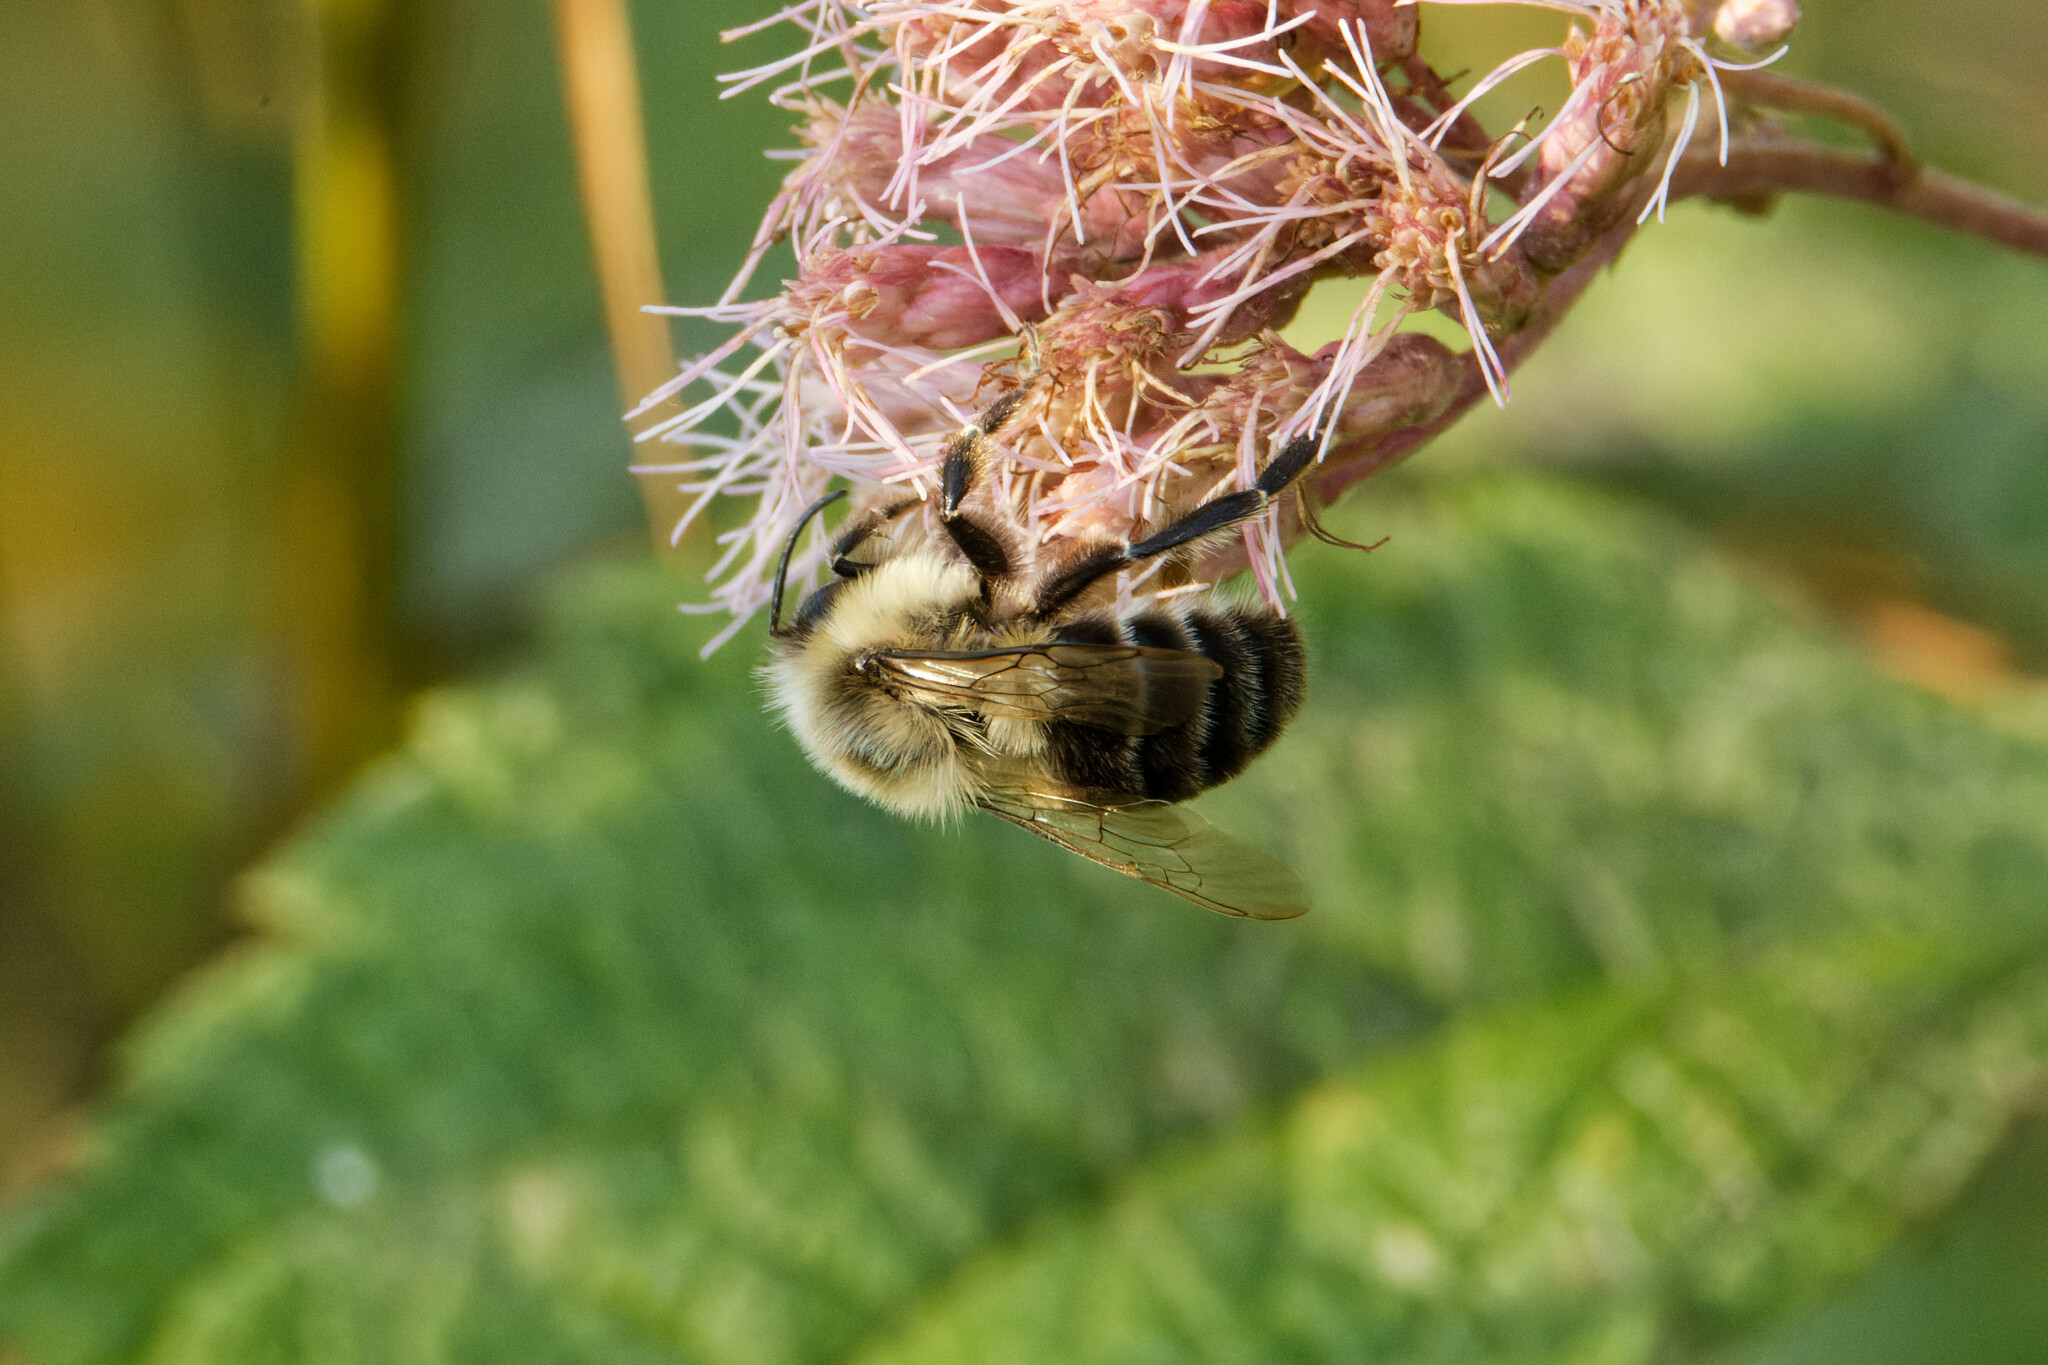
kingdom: Animalia
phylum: Arthropoda
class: Insecta
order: Hymenoptera
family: Apidae
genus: Bombus
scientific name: Bombus impatiens
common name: Common eastern bumble bee
